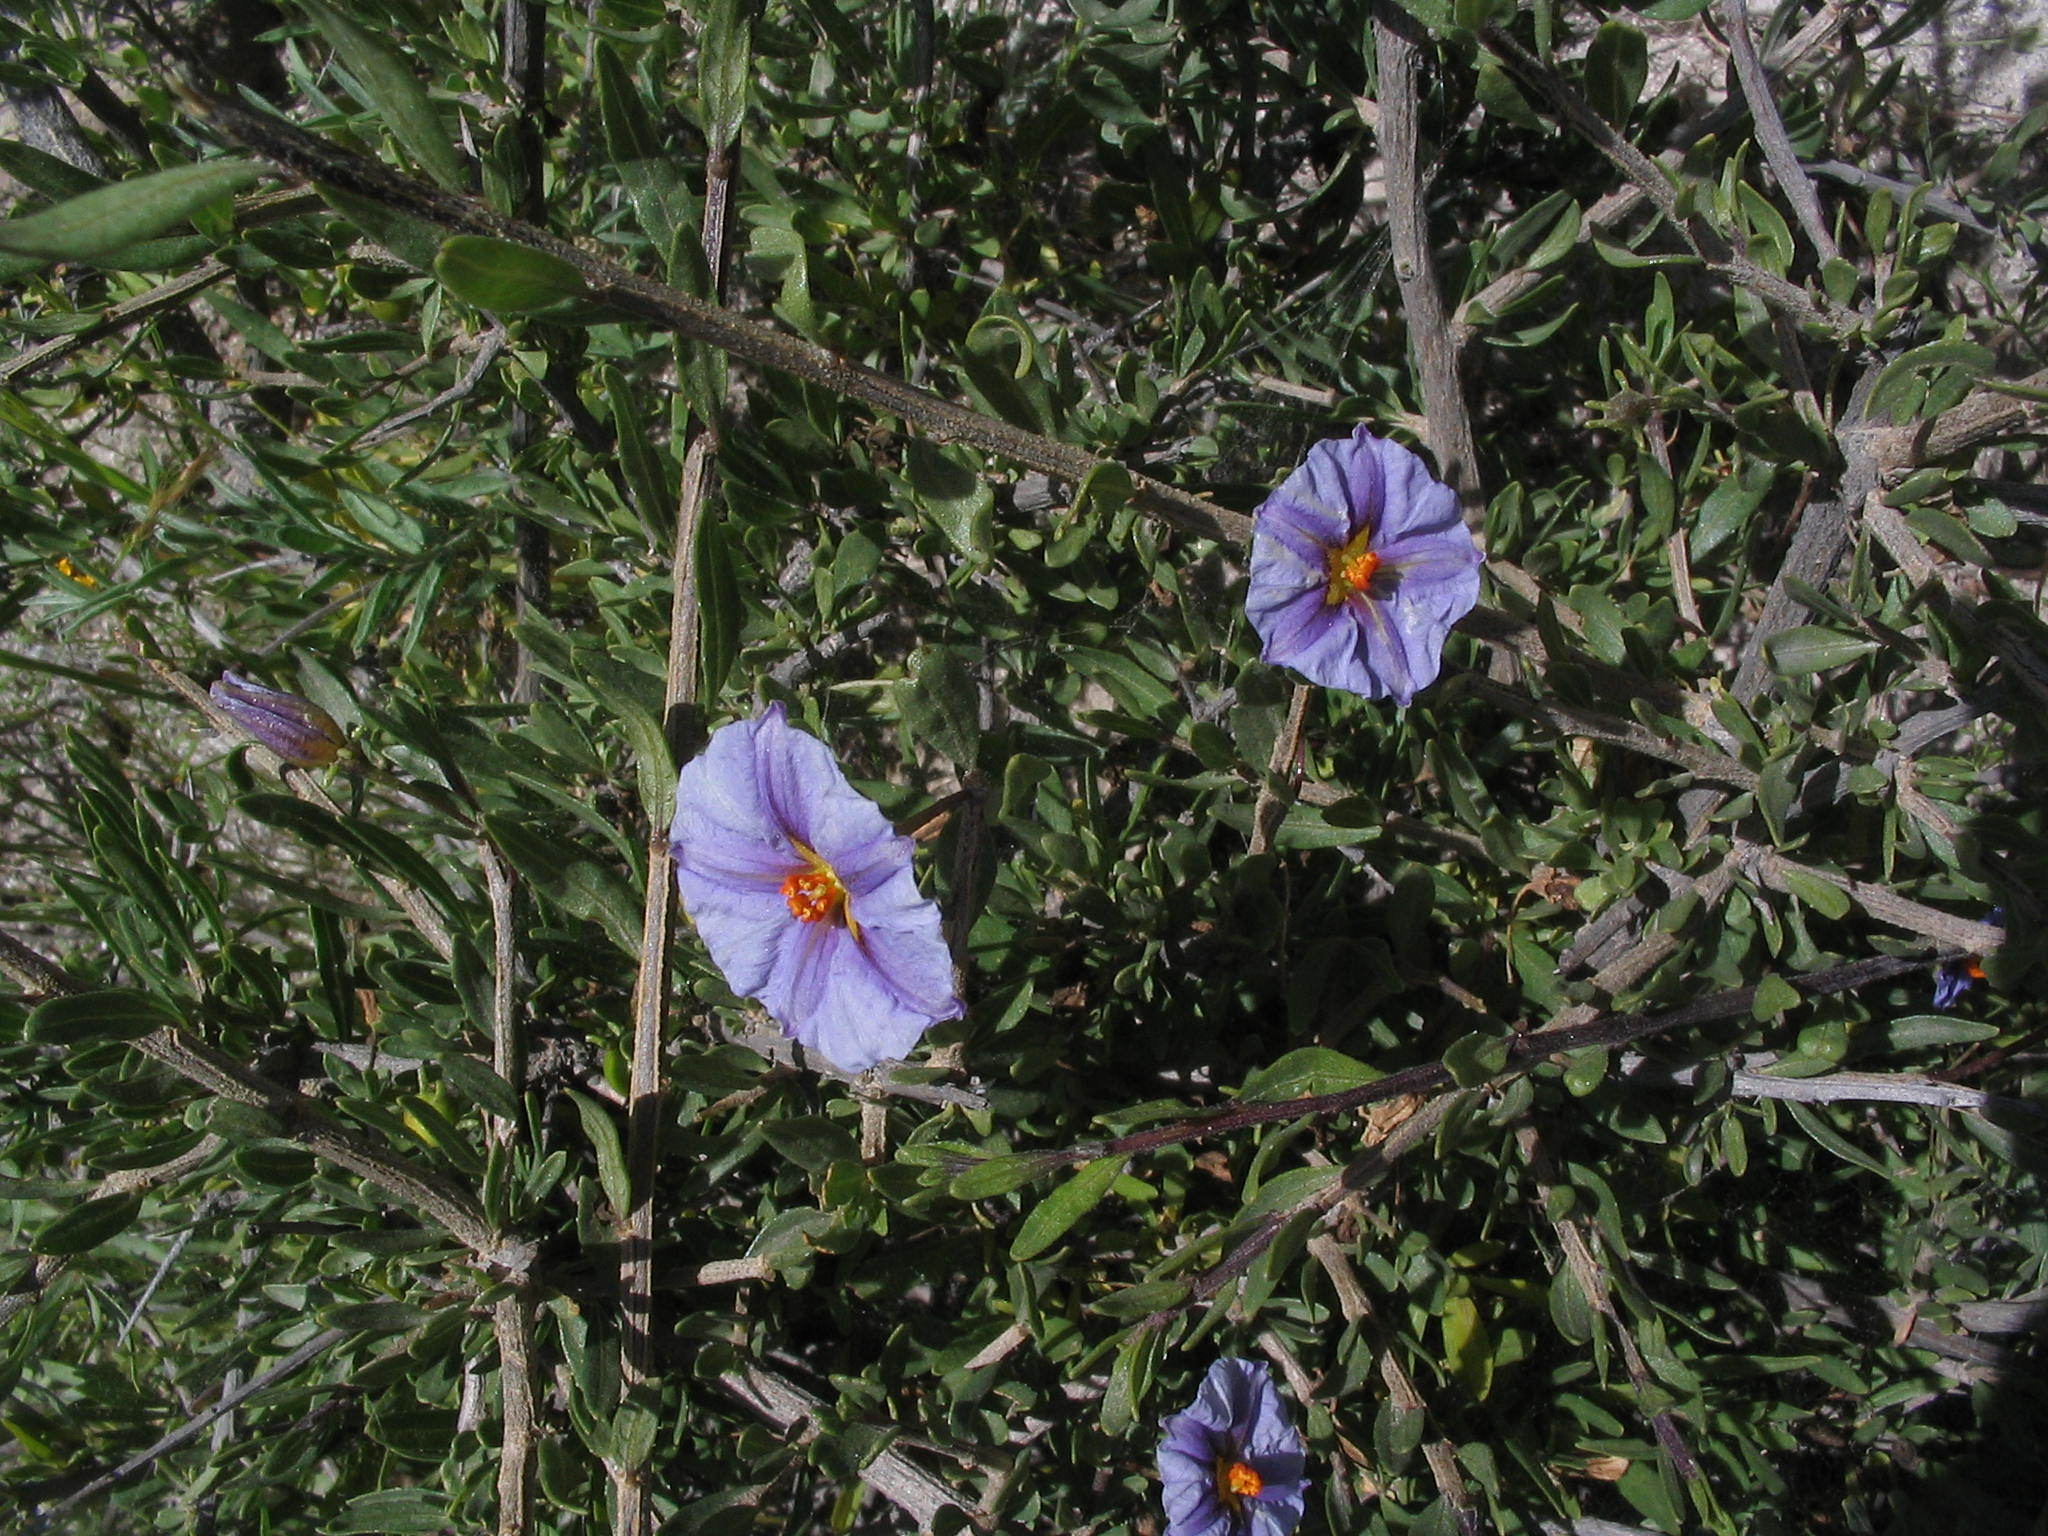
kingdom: Plantae
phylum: Tracheophyta
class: Magnoliopsida
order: Solanales
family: Solanaceae
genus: Lycianthes
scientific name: Lycianthes lycioides
